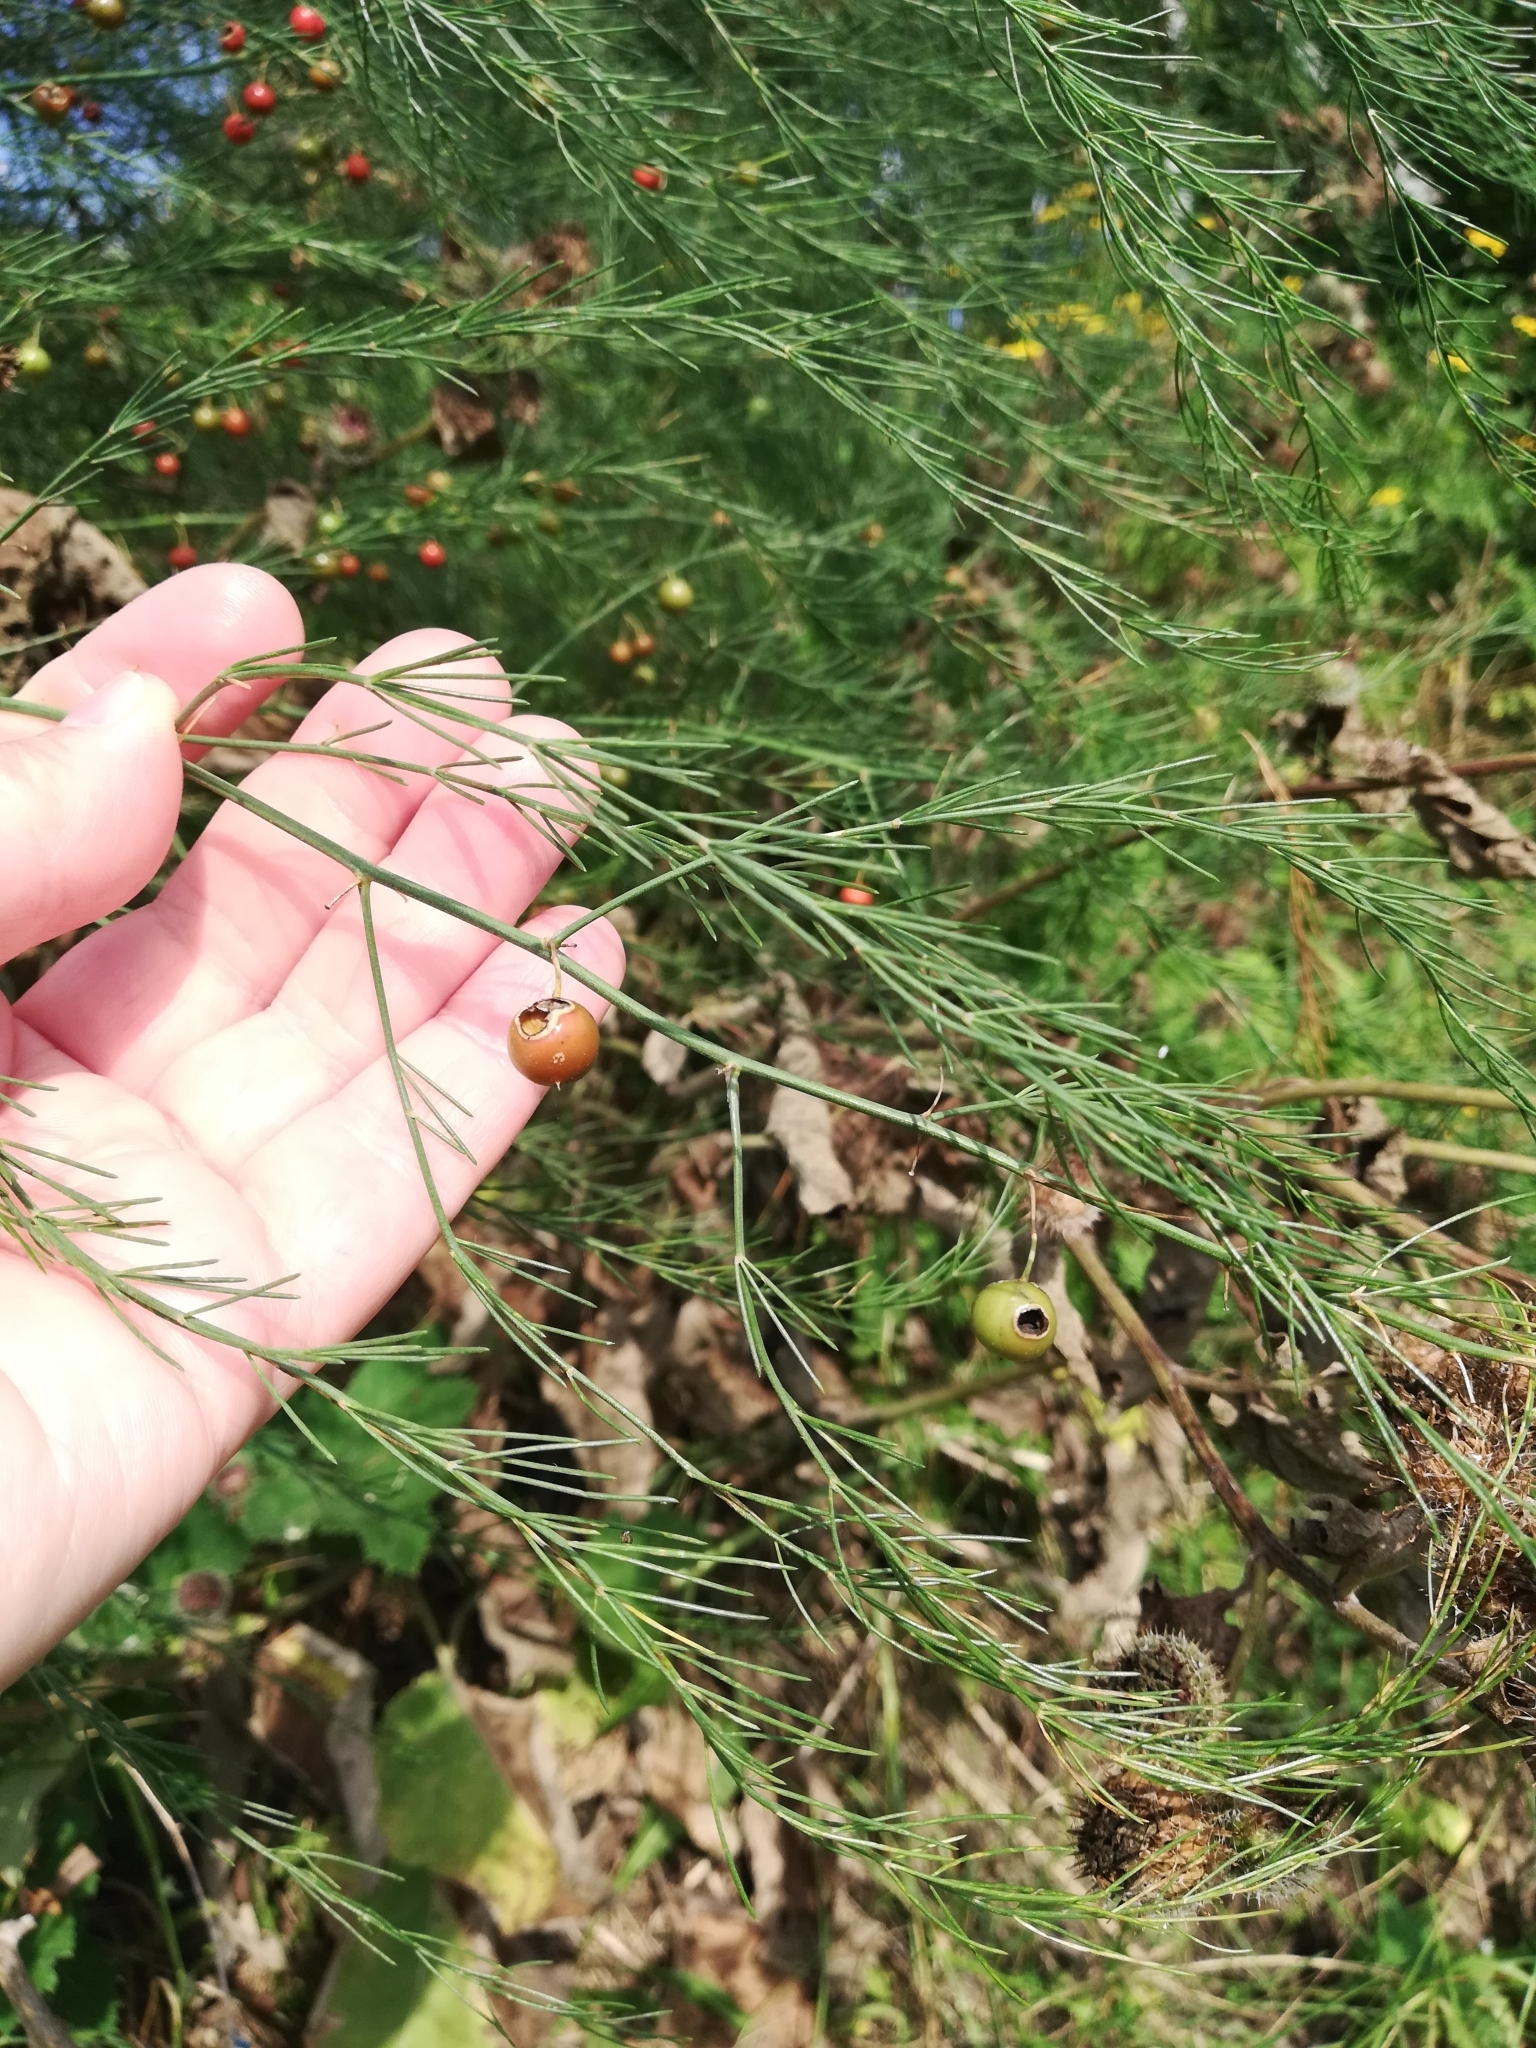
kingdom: Plantae
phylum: Tracheophyta
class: Liliopsida
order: Asparagales
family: Asparagaceae
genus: Asparagus
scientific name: Asparagus officinalis
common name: Garden asparagus
